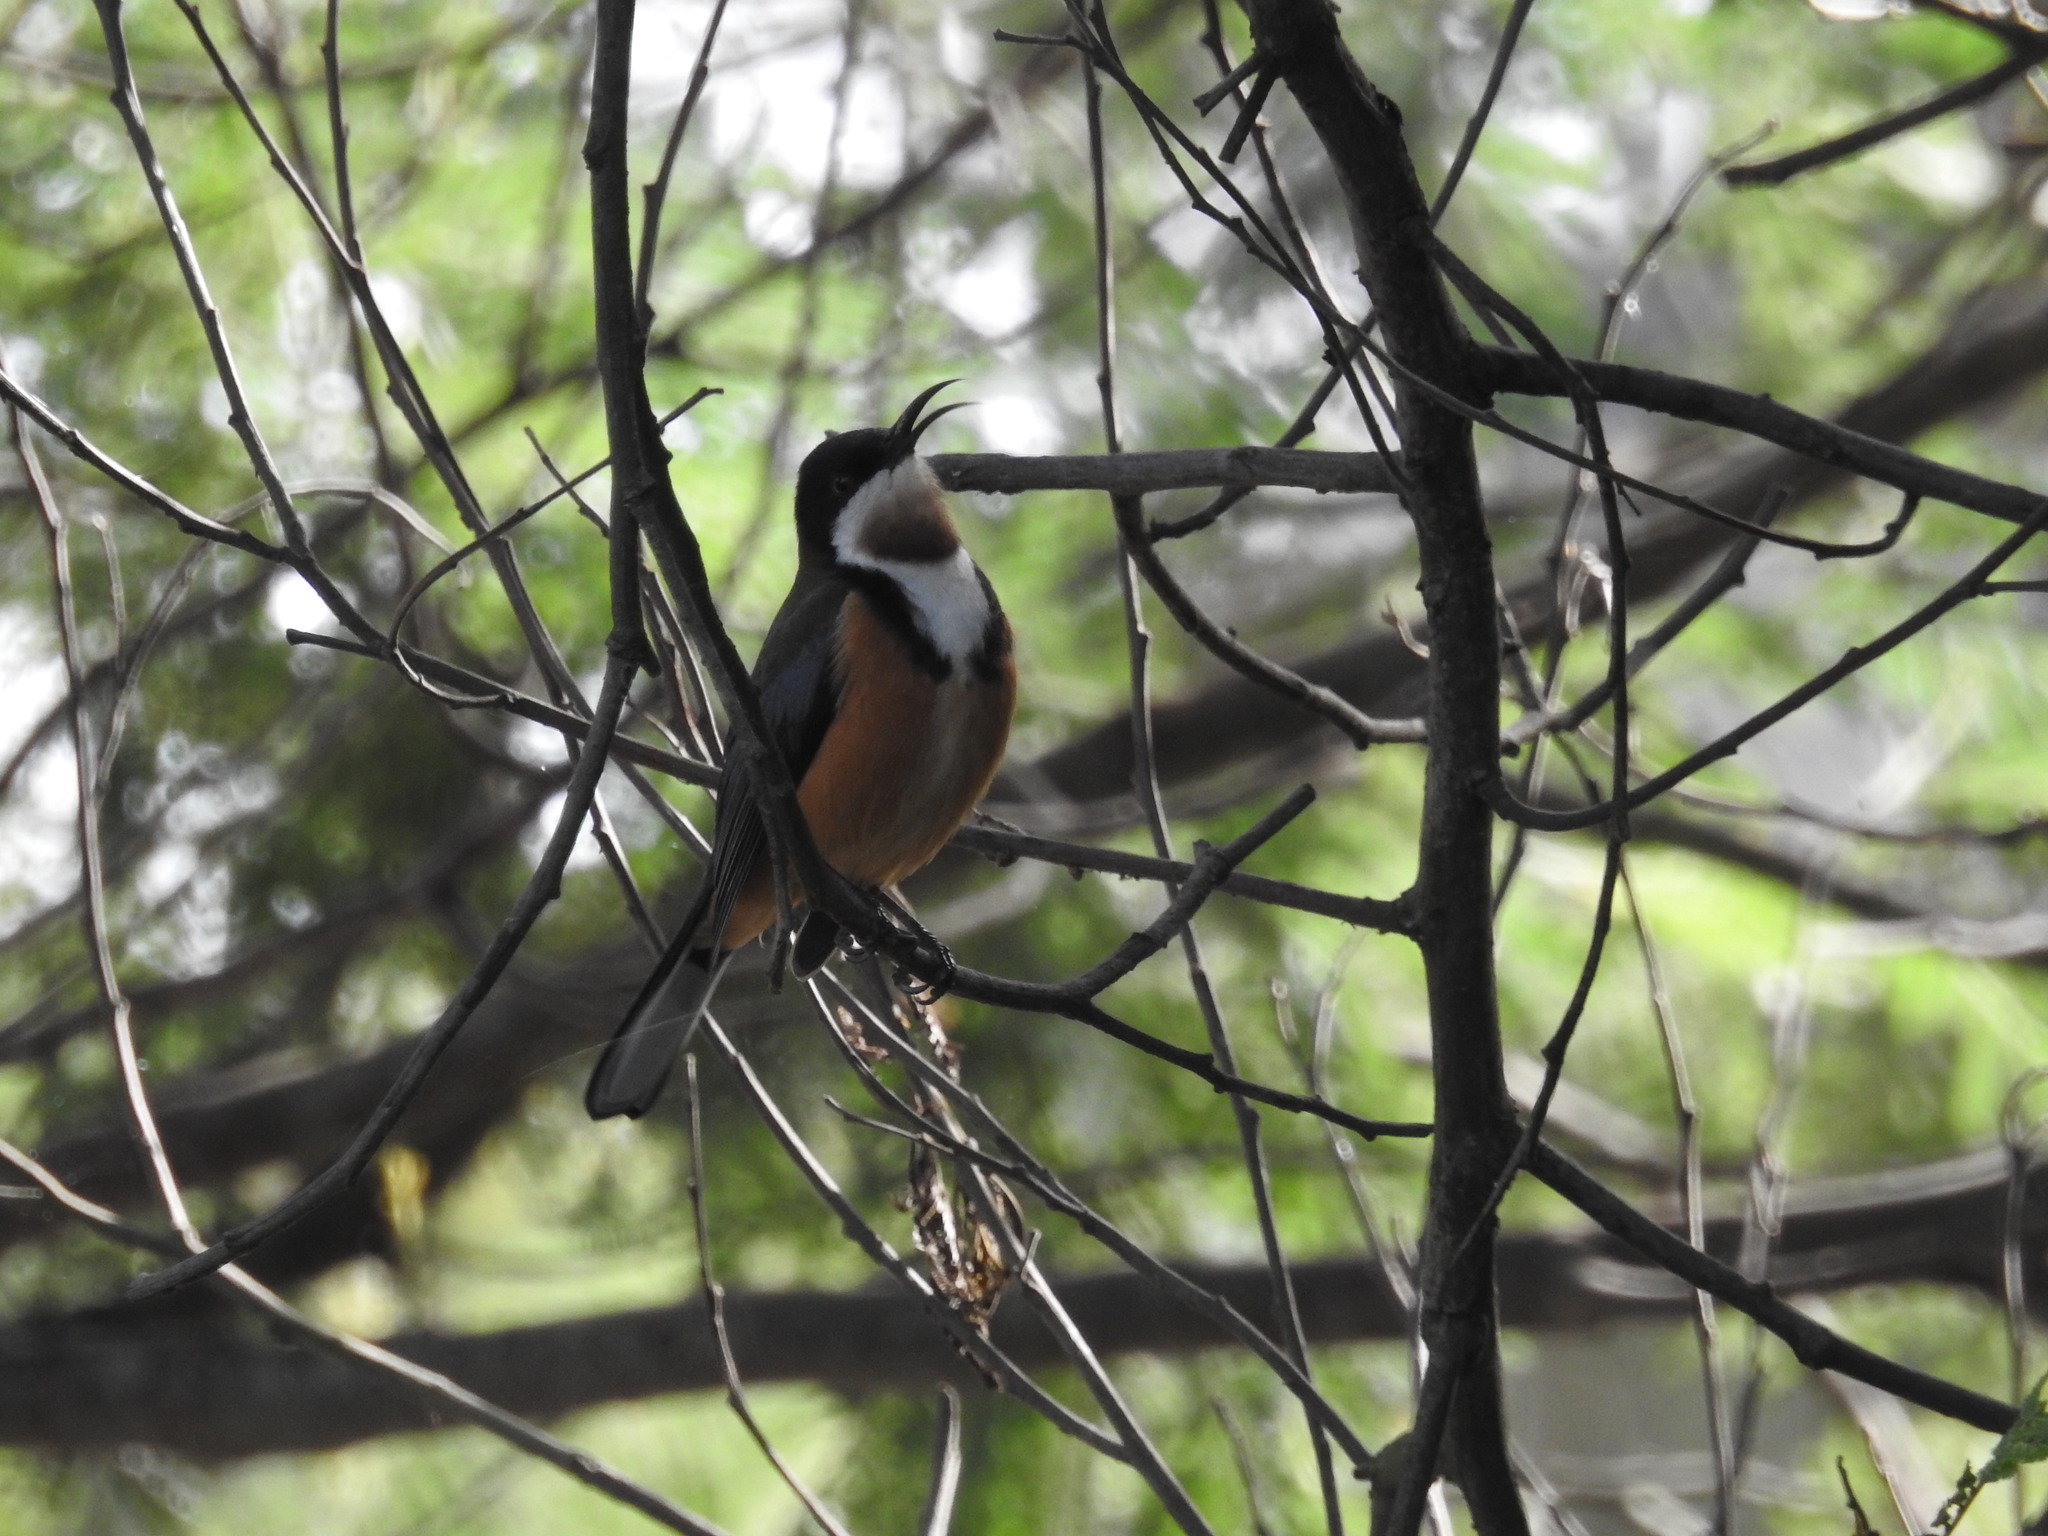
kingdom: Animalia
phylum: Chordata
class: Aves
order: Passeriformes
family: Meliphagidae
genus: Acanthorhynchus
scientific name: Acanthorhynchus tenuirostris
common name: Eastern spinebill
